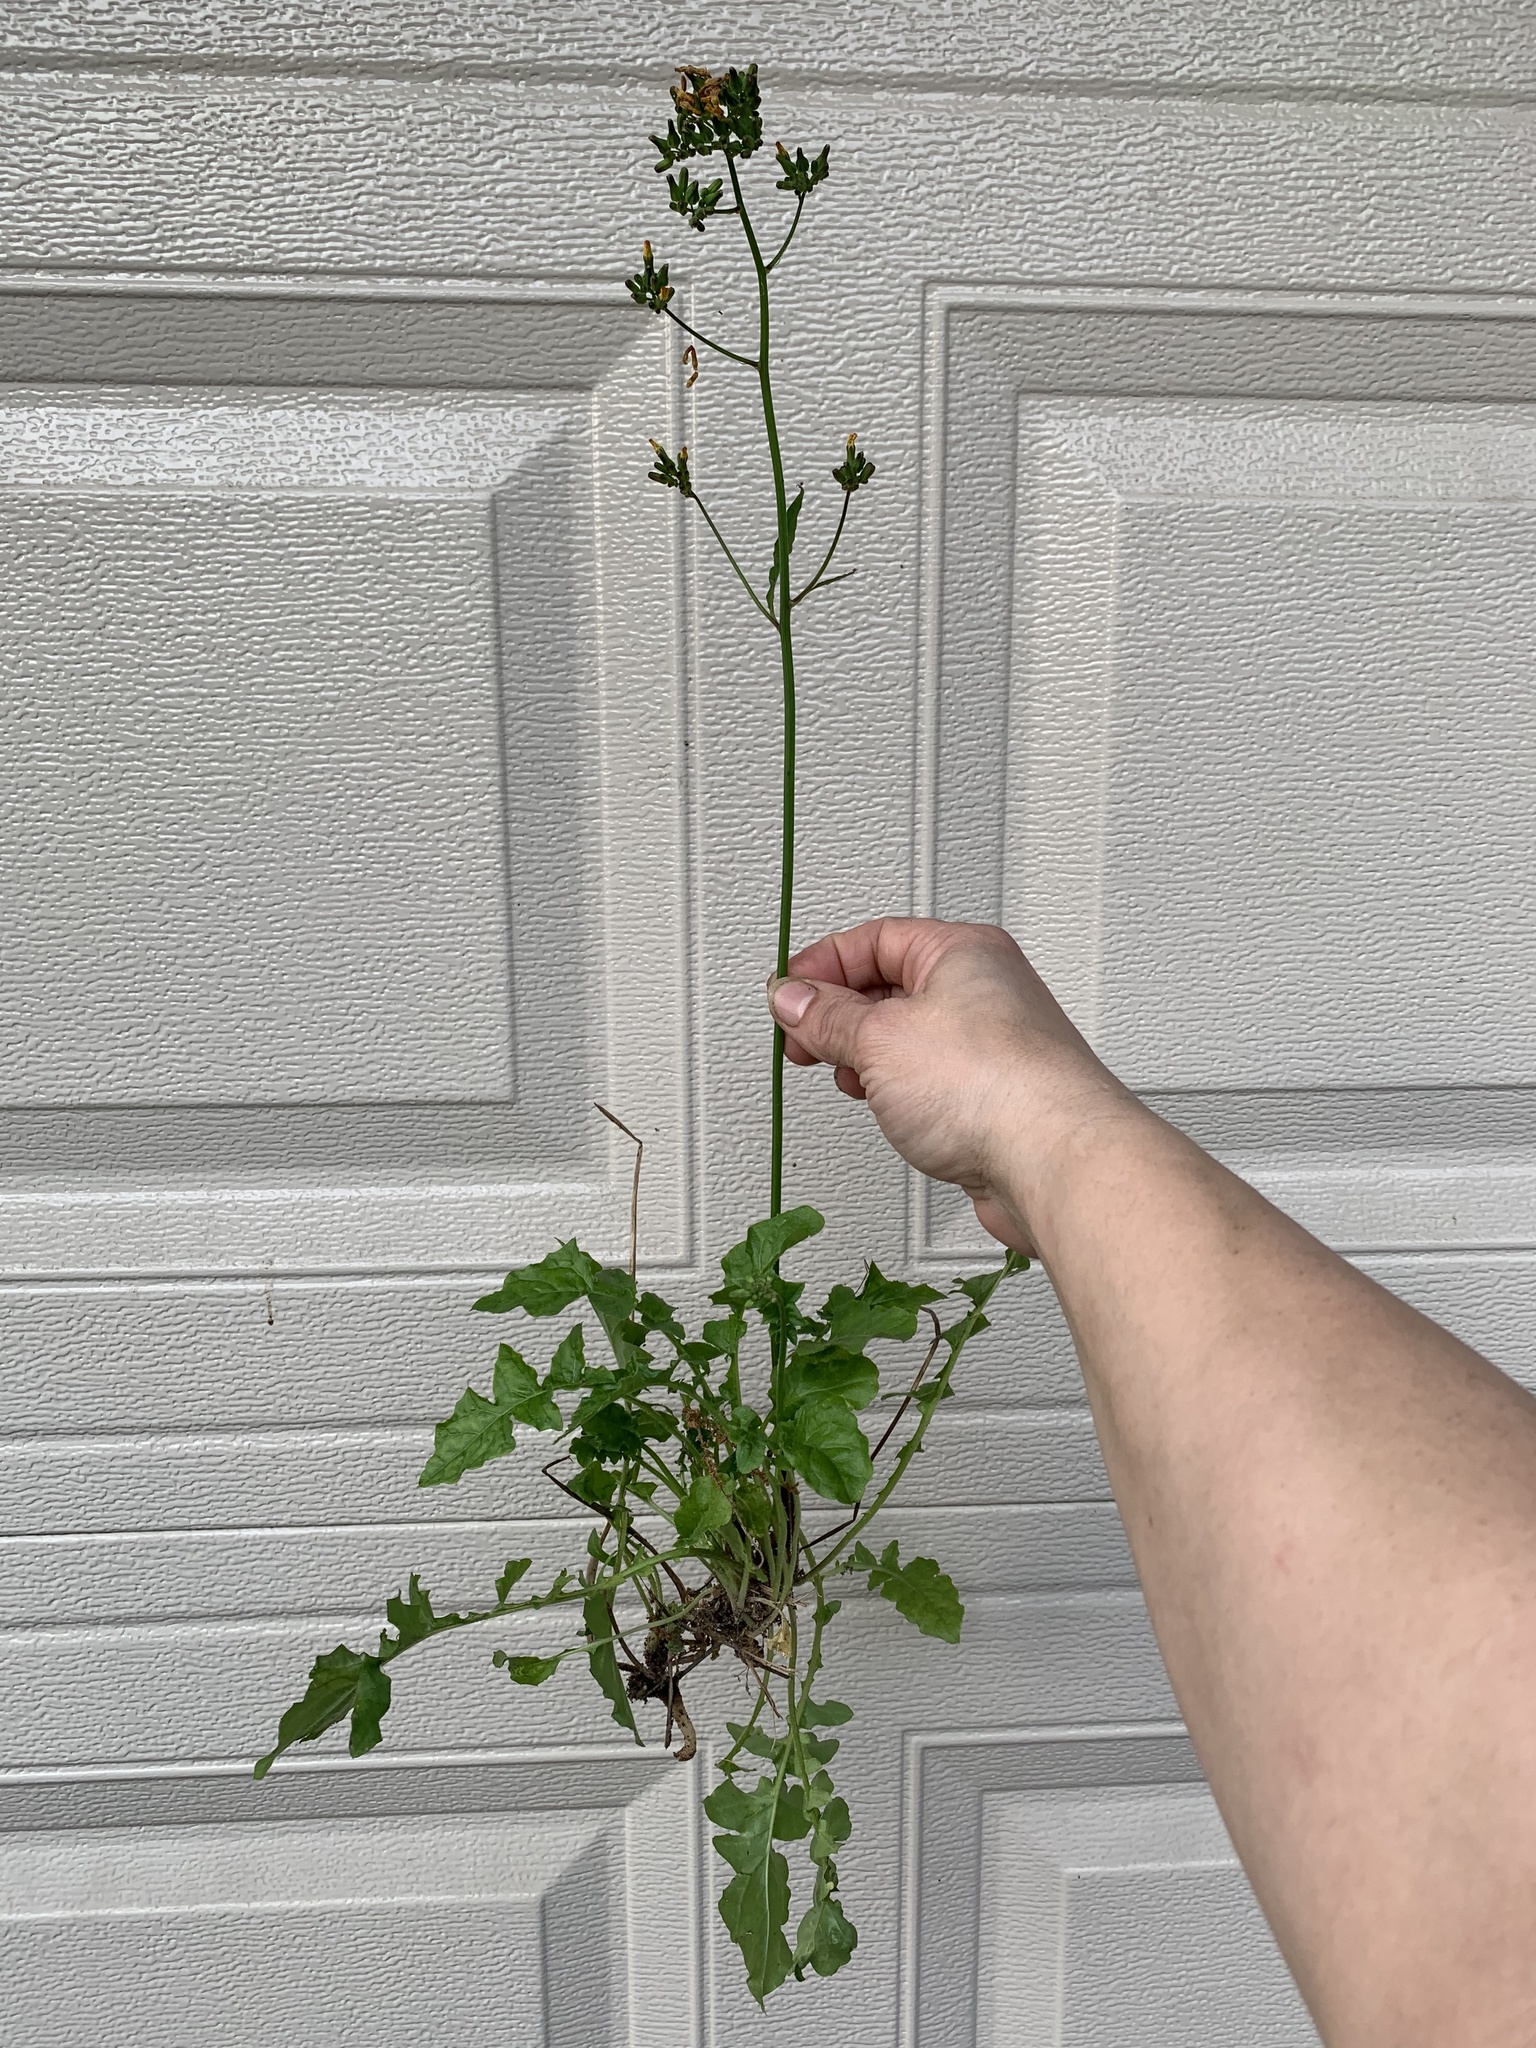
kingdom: Plantae
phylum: Tracheophyta
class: Magnoliopsida
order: Asterales
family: Asteraceae
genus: Youngia
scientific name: Youngia japonica
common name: Oriental false hawksbeard
